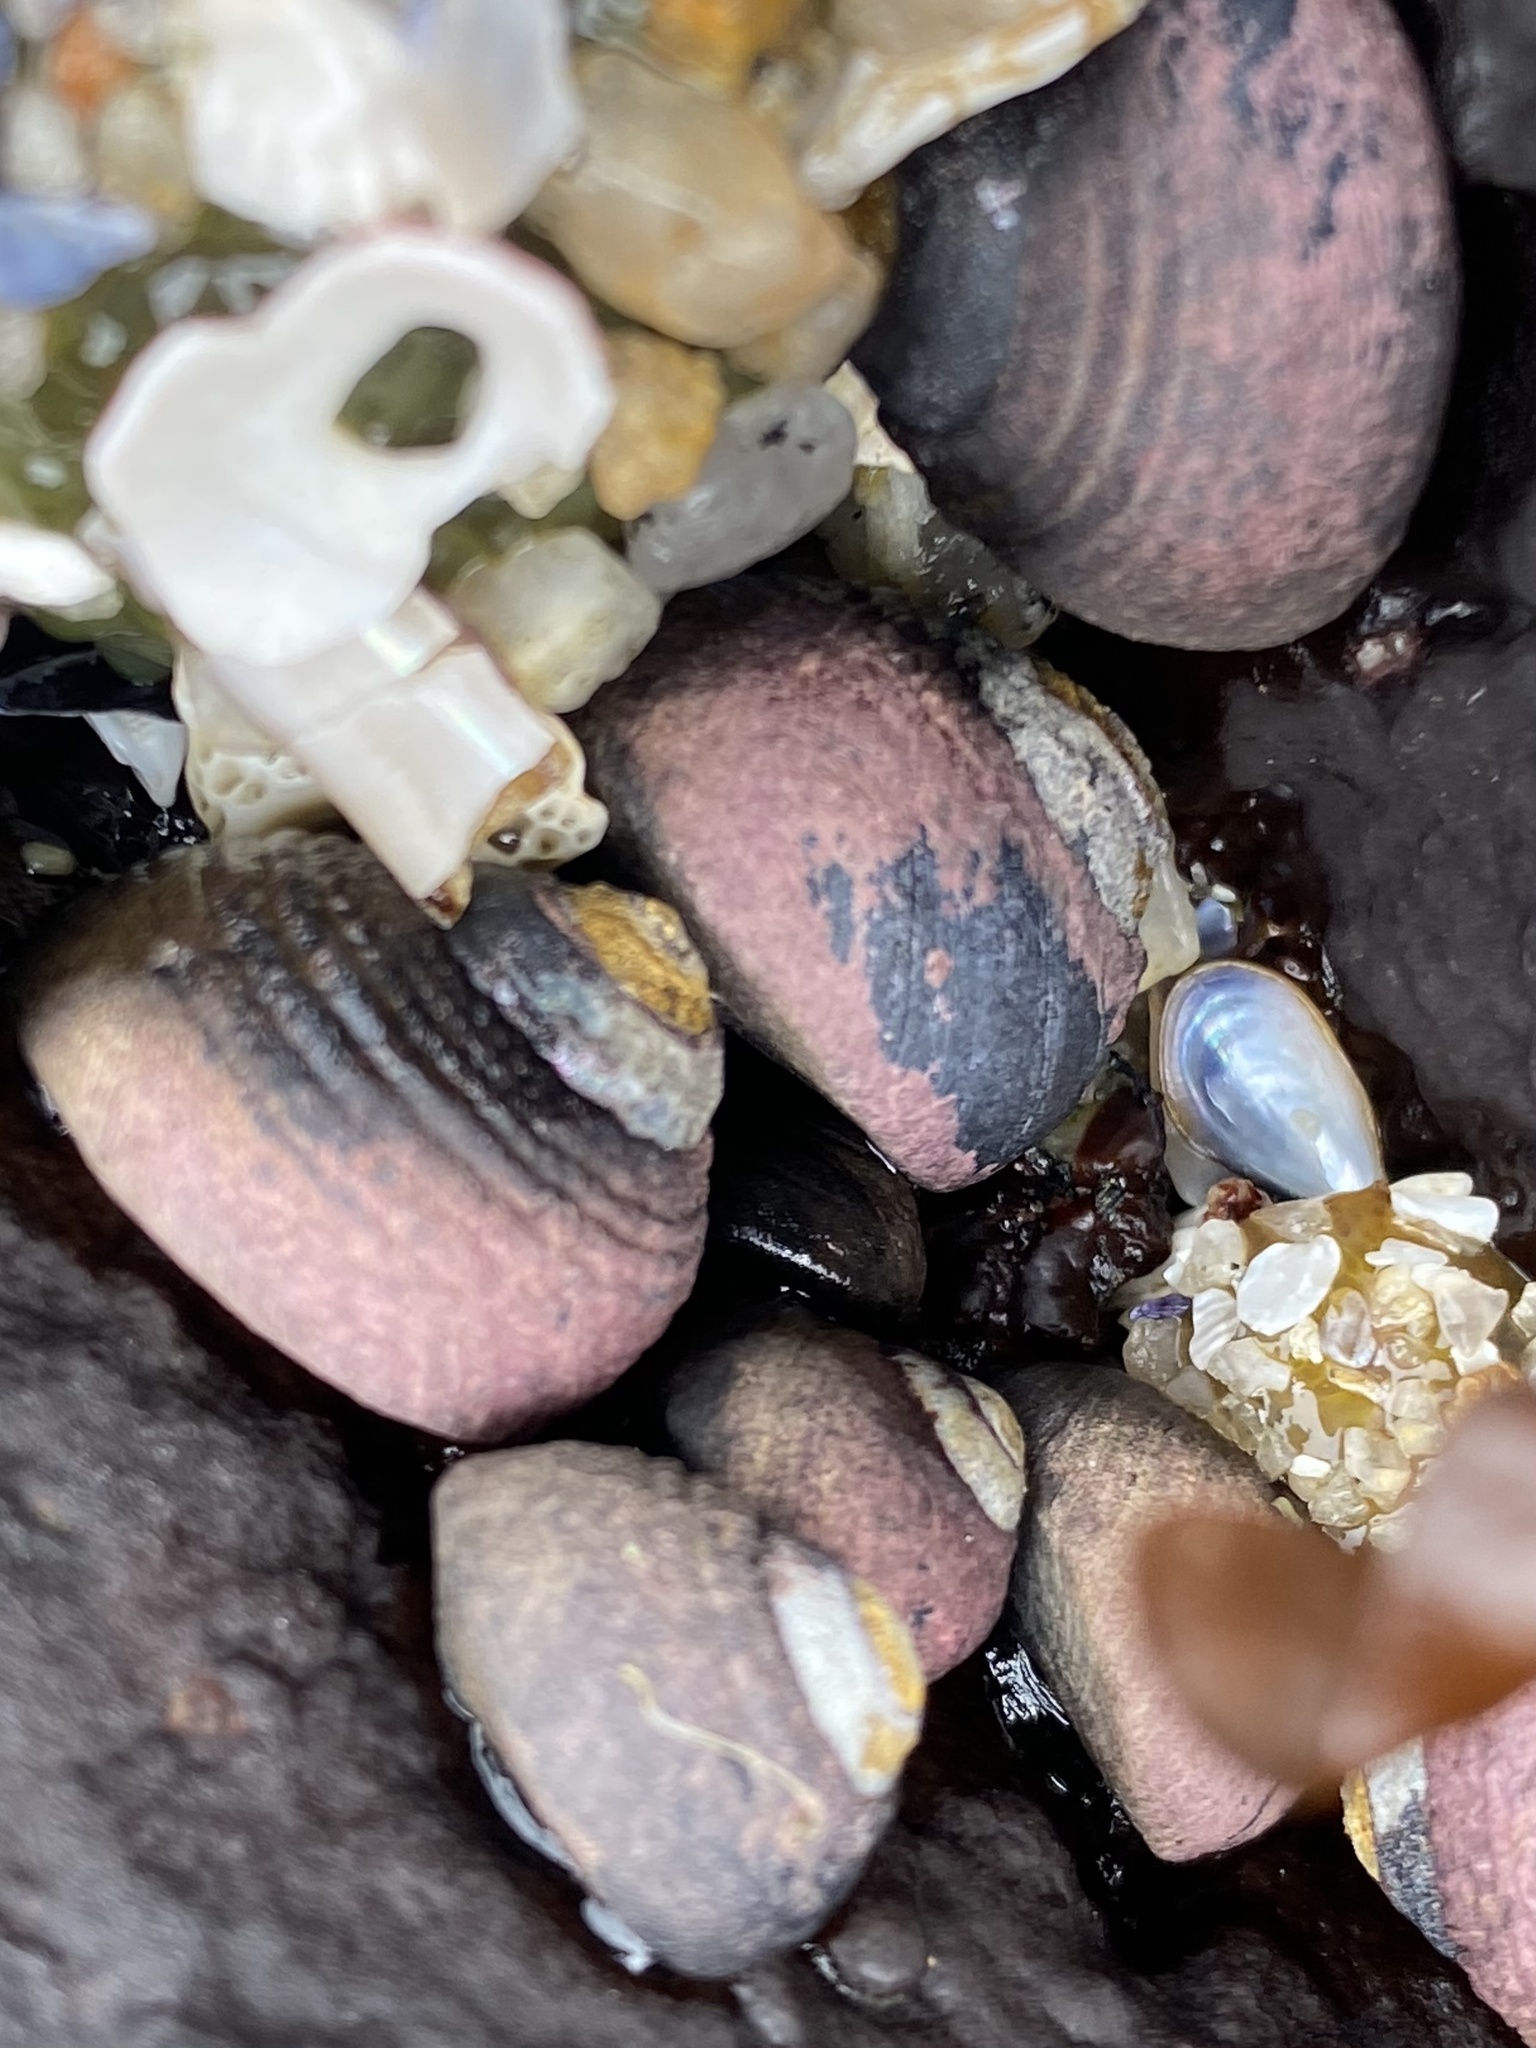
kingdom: Animalia
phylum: Mollusca
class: Gastropoda
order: Trochida
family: Tegulidae
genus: Tegula
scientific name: Tegula funebralis
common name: Black tegula
